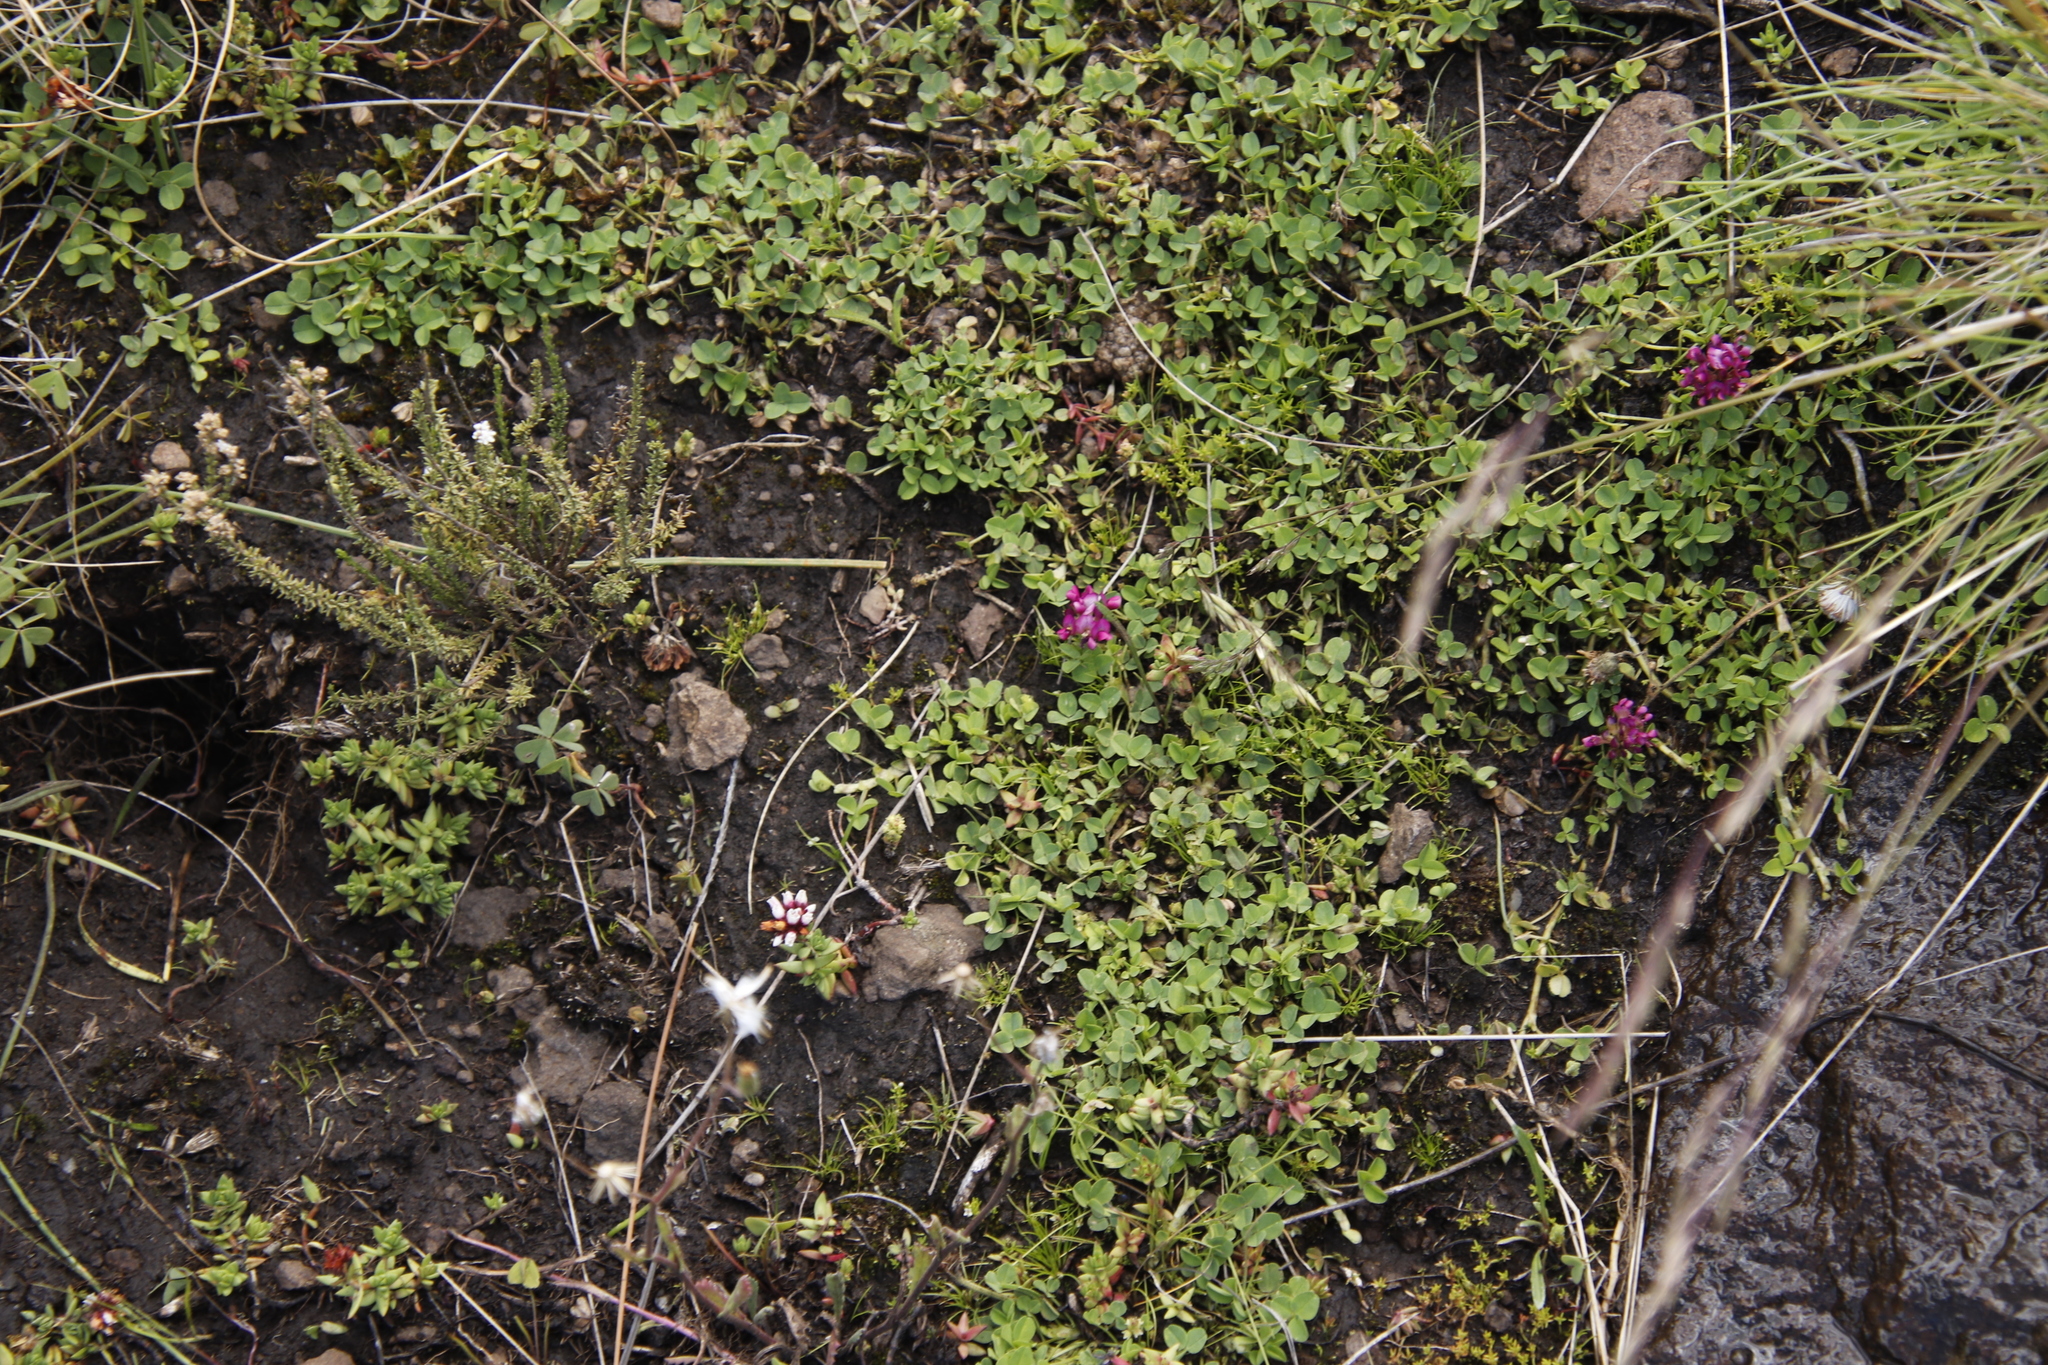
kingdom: Plantae
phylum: Tracheophyta
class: Magnoliopsida
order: Fabales
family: Fabaceae
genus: Trifolium
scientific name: Trifolium burchellianum
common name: Burchell's clover
